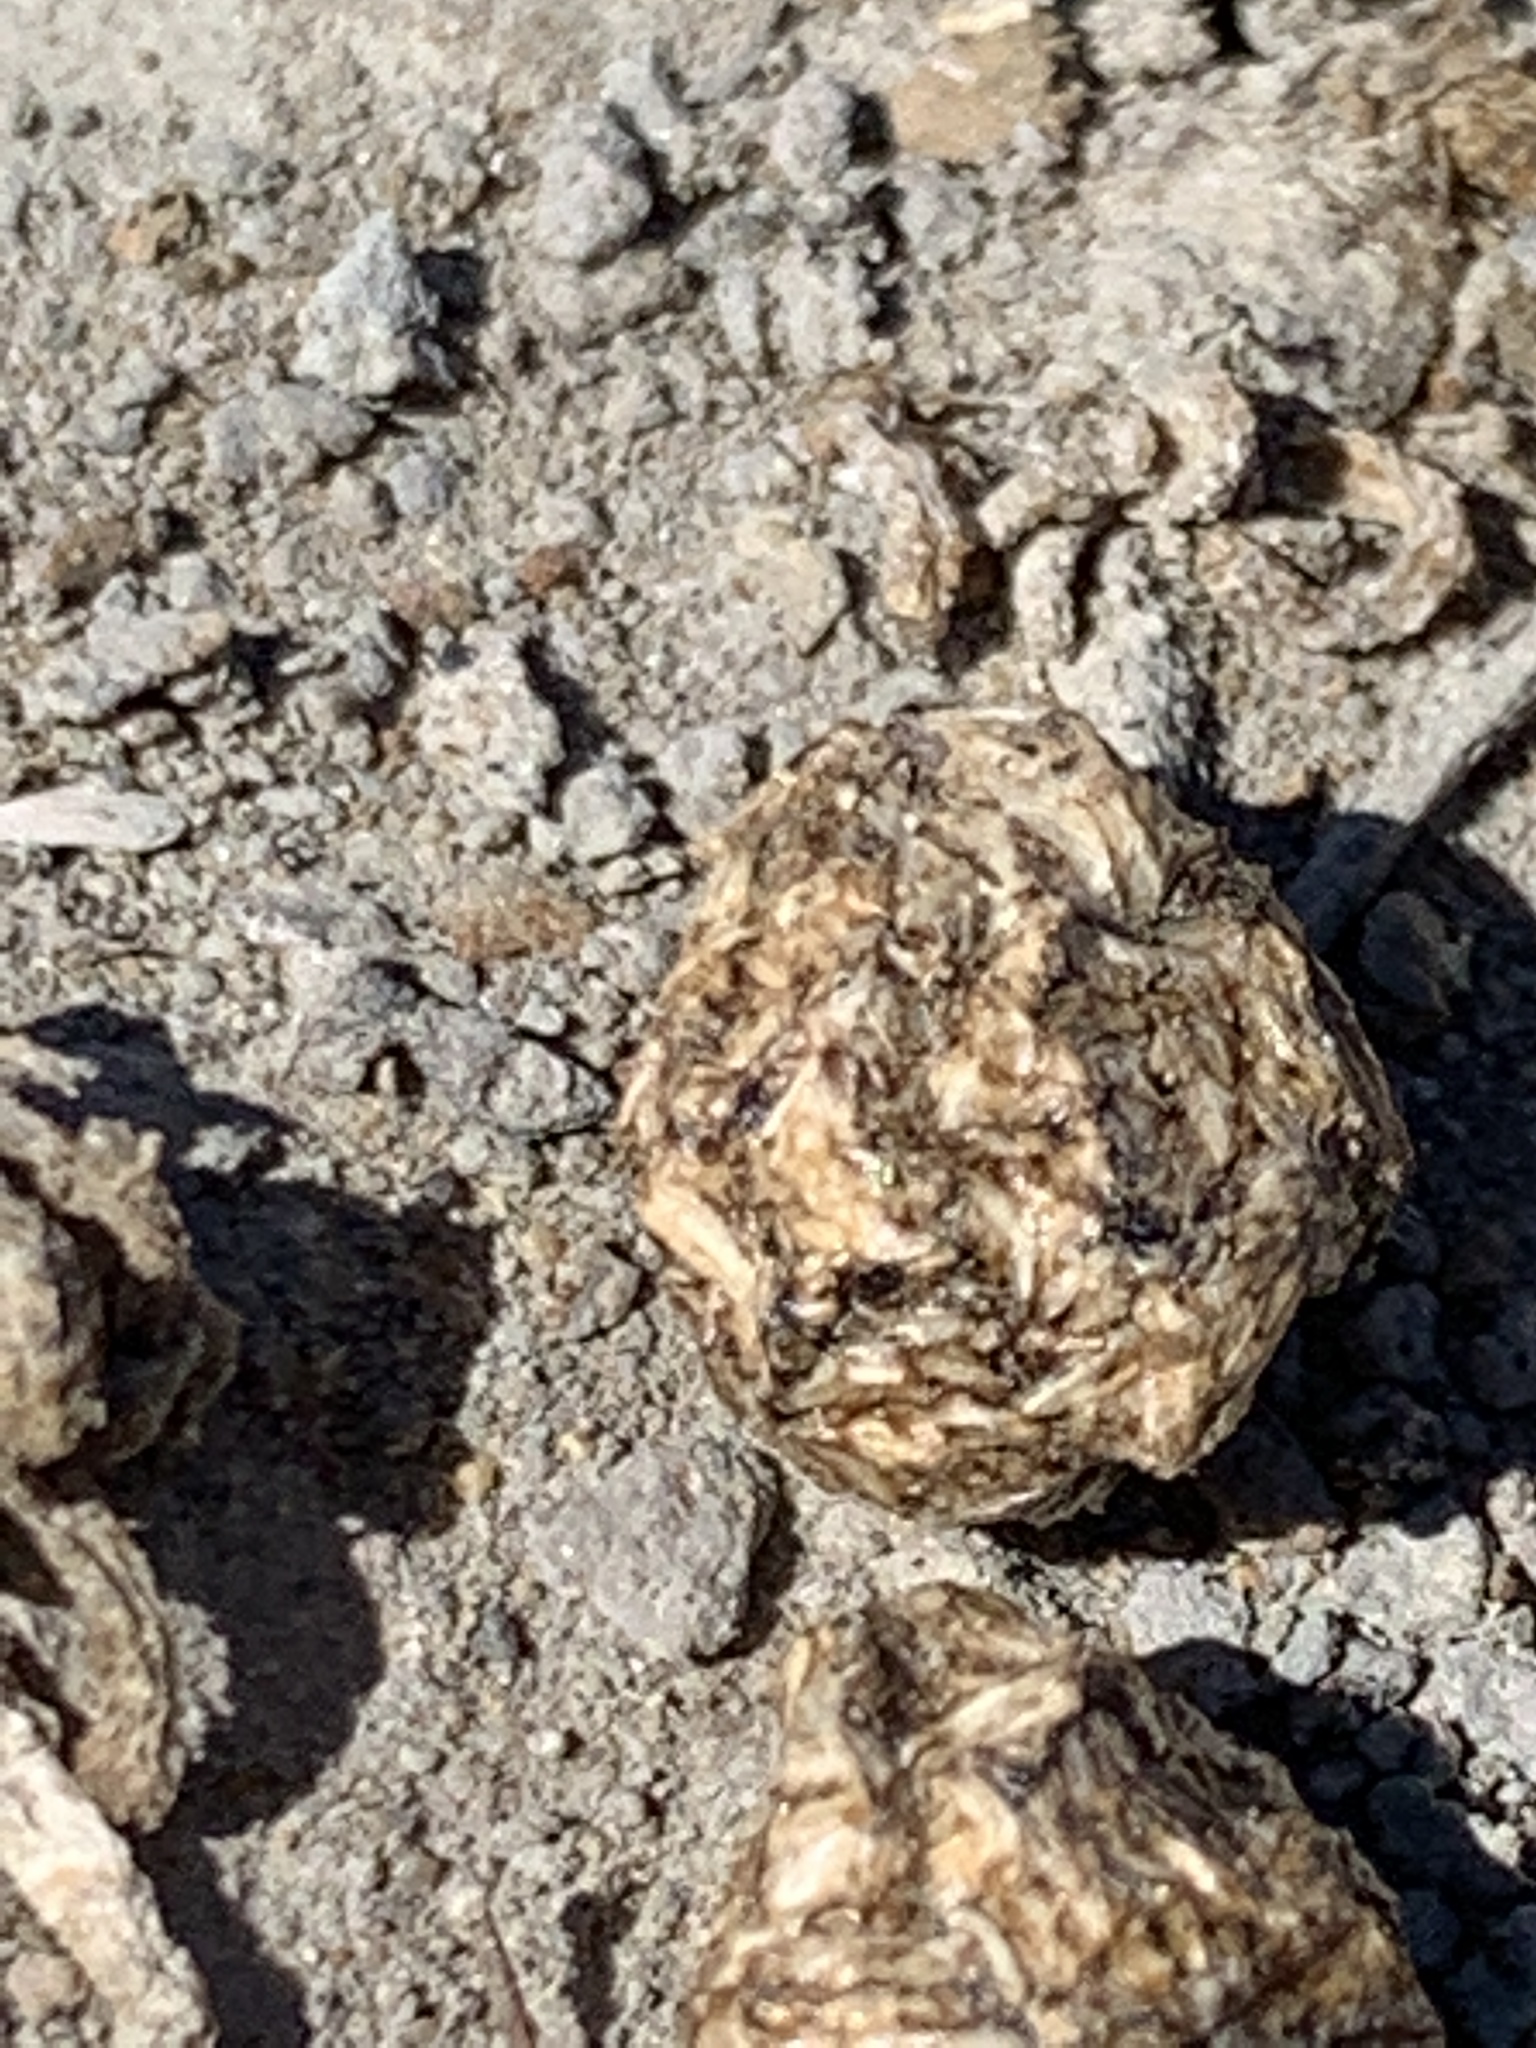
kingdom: Animalia
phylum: Chordata
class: Mammalia
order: Lagomorpha
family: Leporidae
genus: Lepus
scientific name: Lepus californicus
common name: Black-tailed jackrabbit
